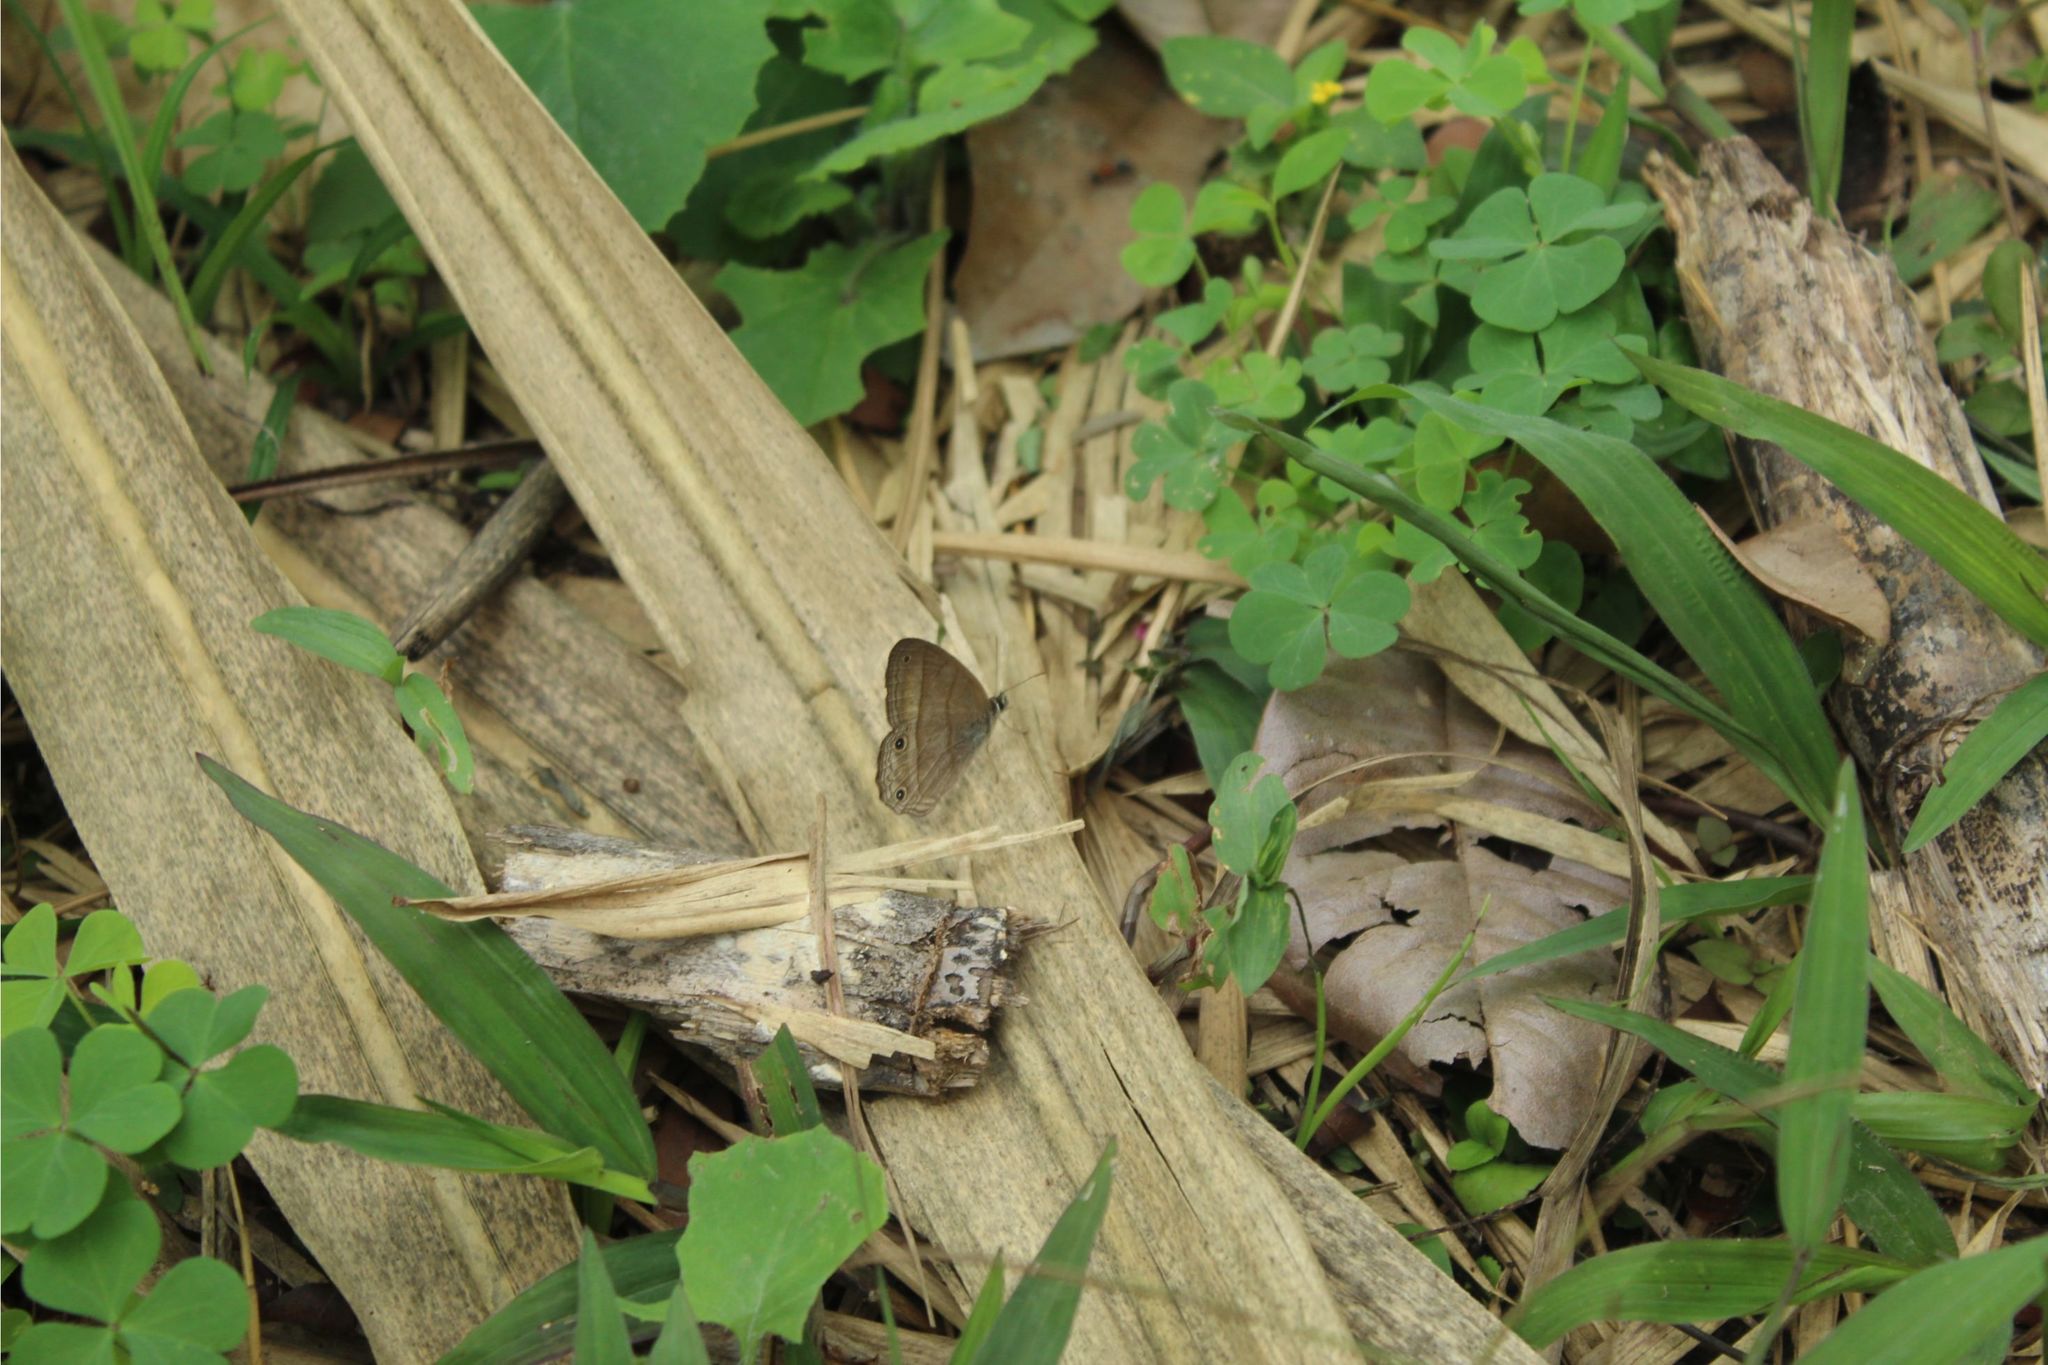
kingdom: Animalia
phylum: Arthropoda
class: Insecta
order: Lepidoptera
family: Nymphalidae
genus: Euptychia
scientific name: Euptychia Cissia pompilia
